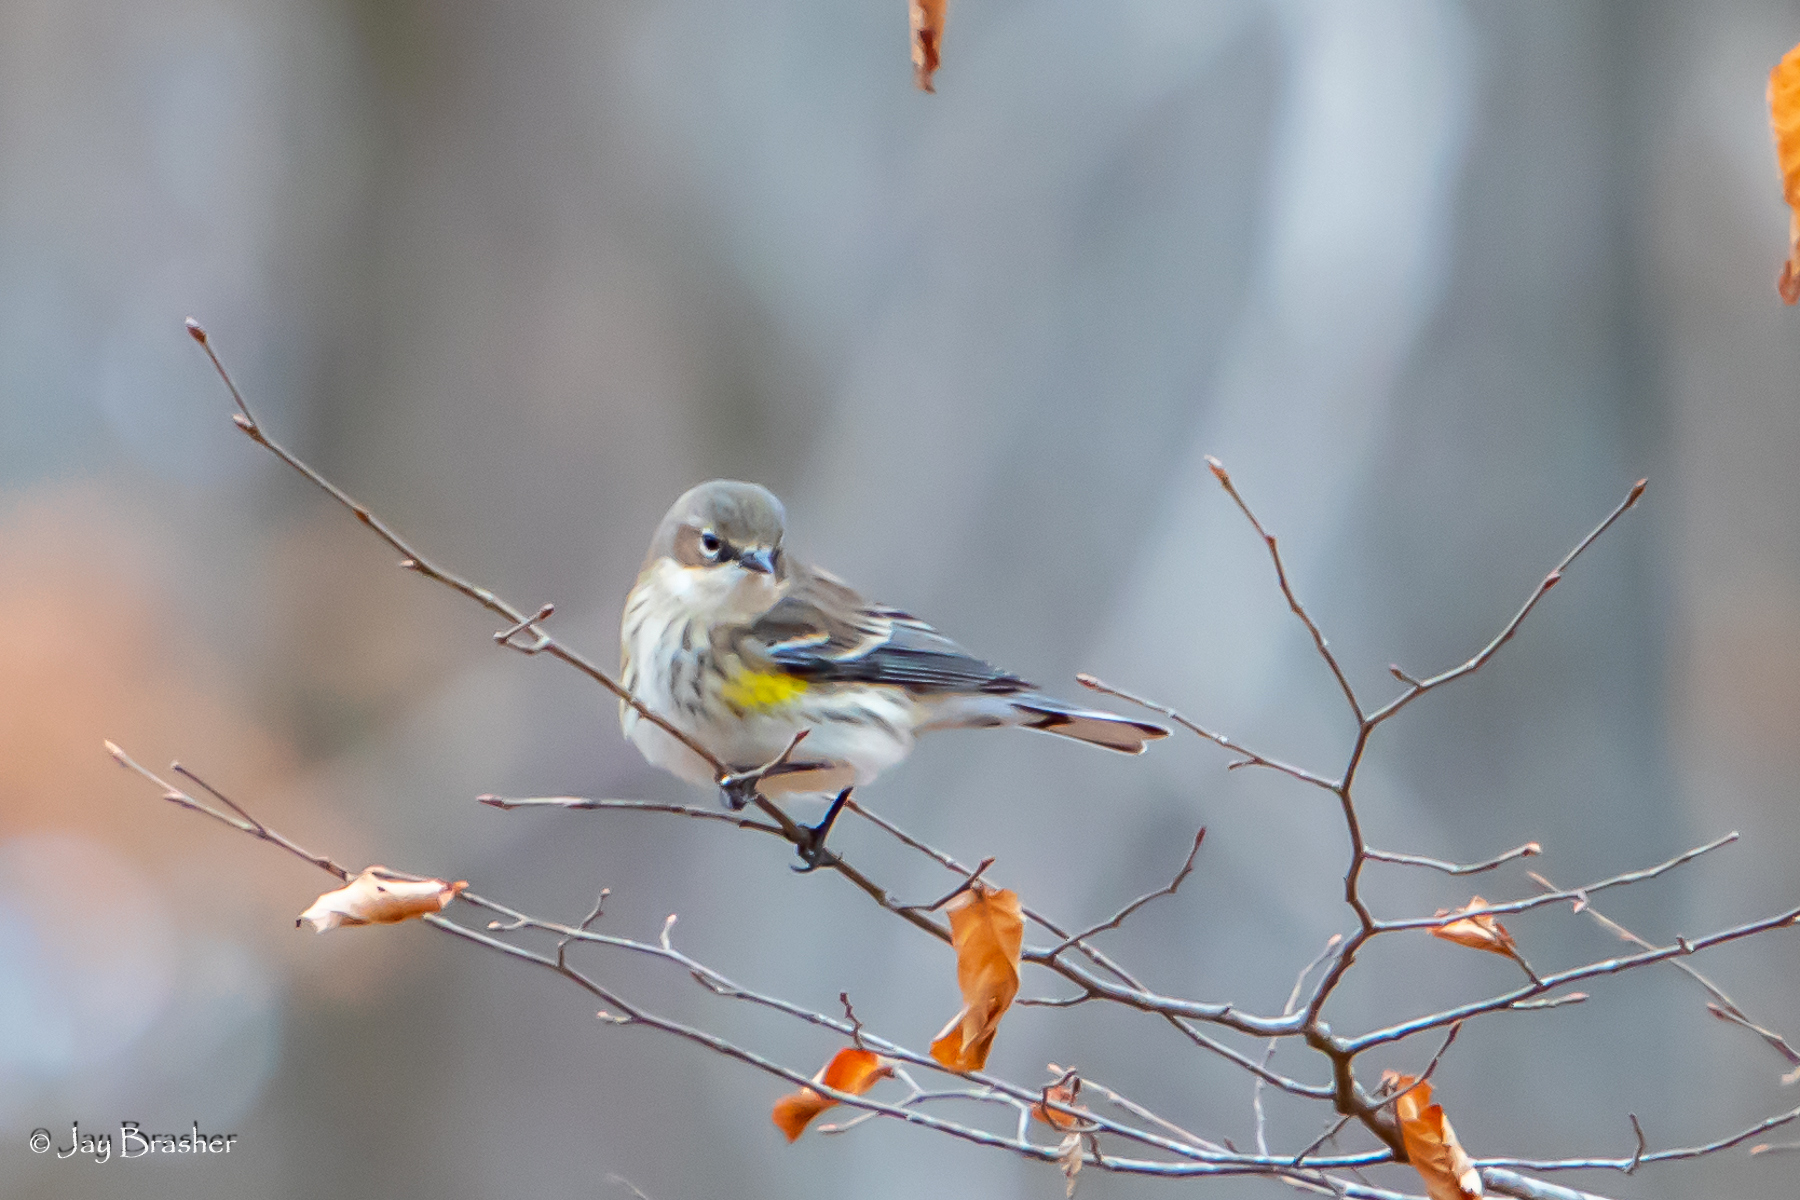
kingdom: Animalia
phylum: Chordata
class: Aves
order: Passeriformes
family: Parulidae
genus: Setophaga
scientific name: Setophaga coronata
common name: Myrtle warbler
